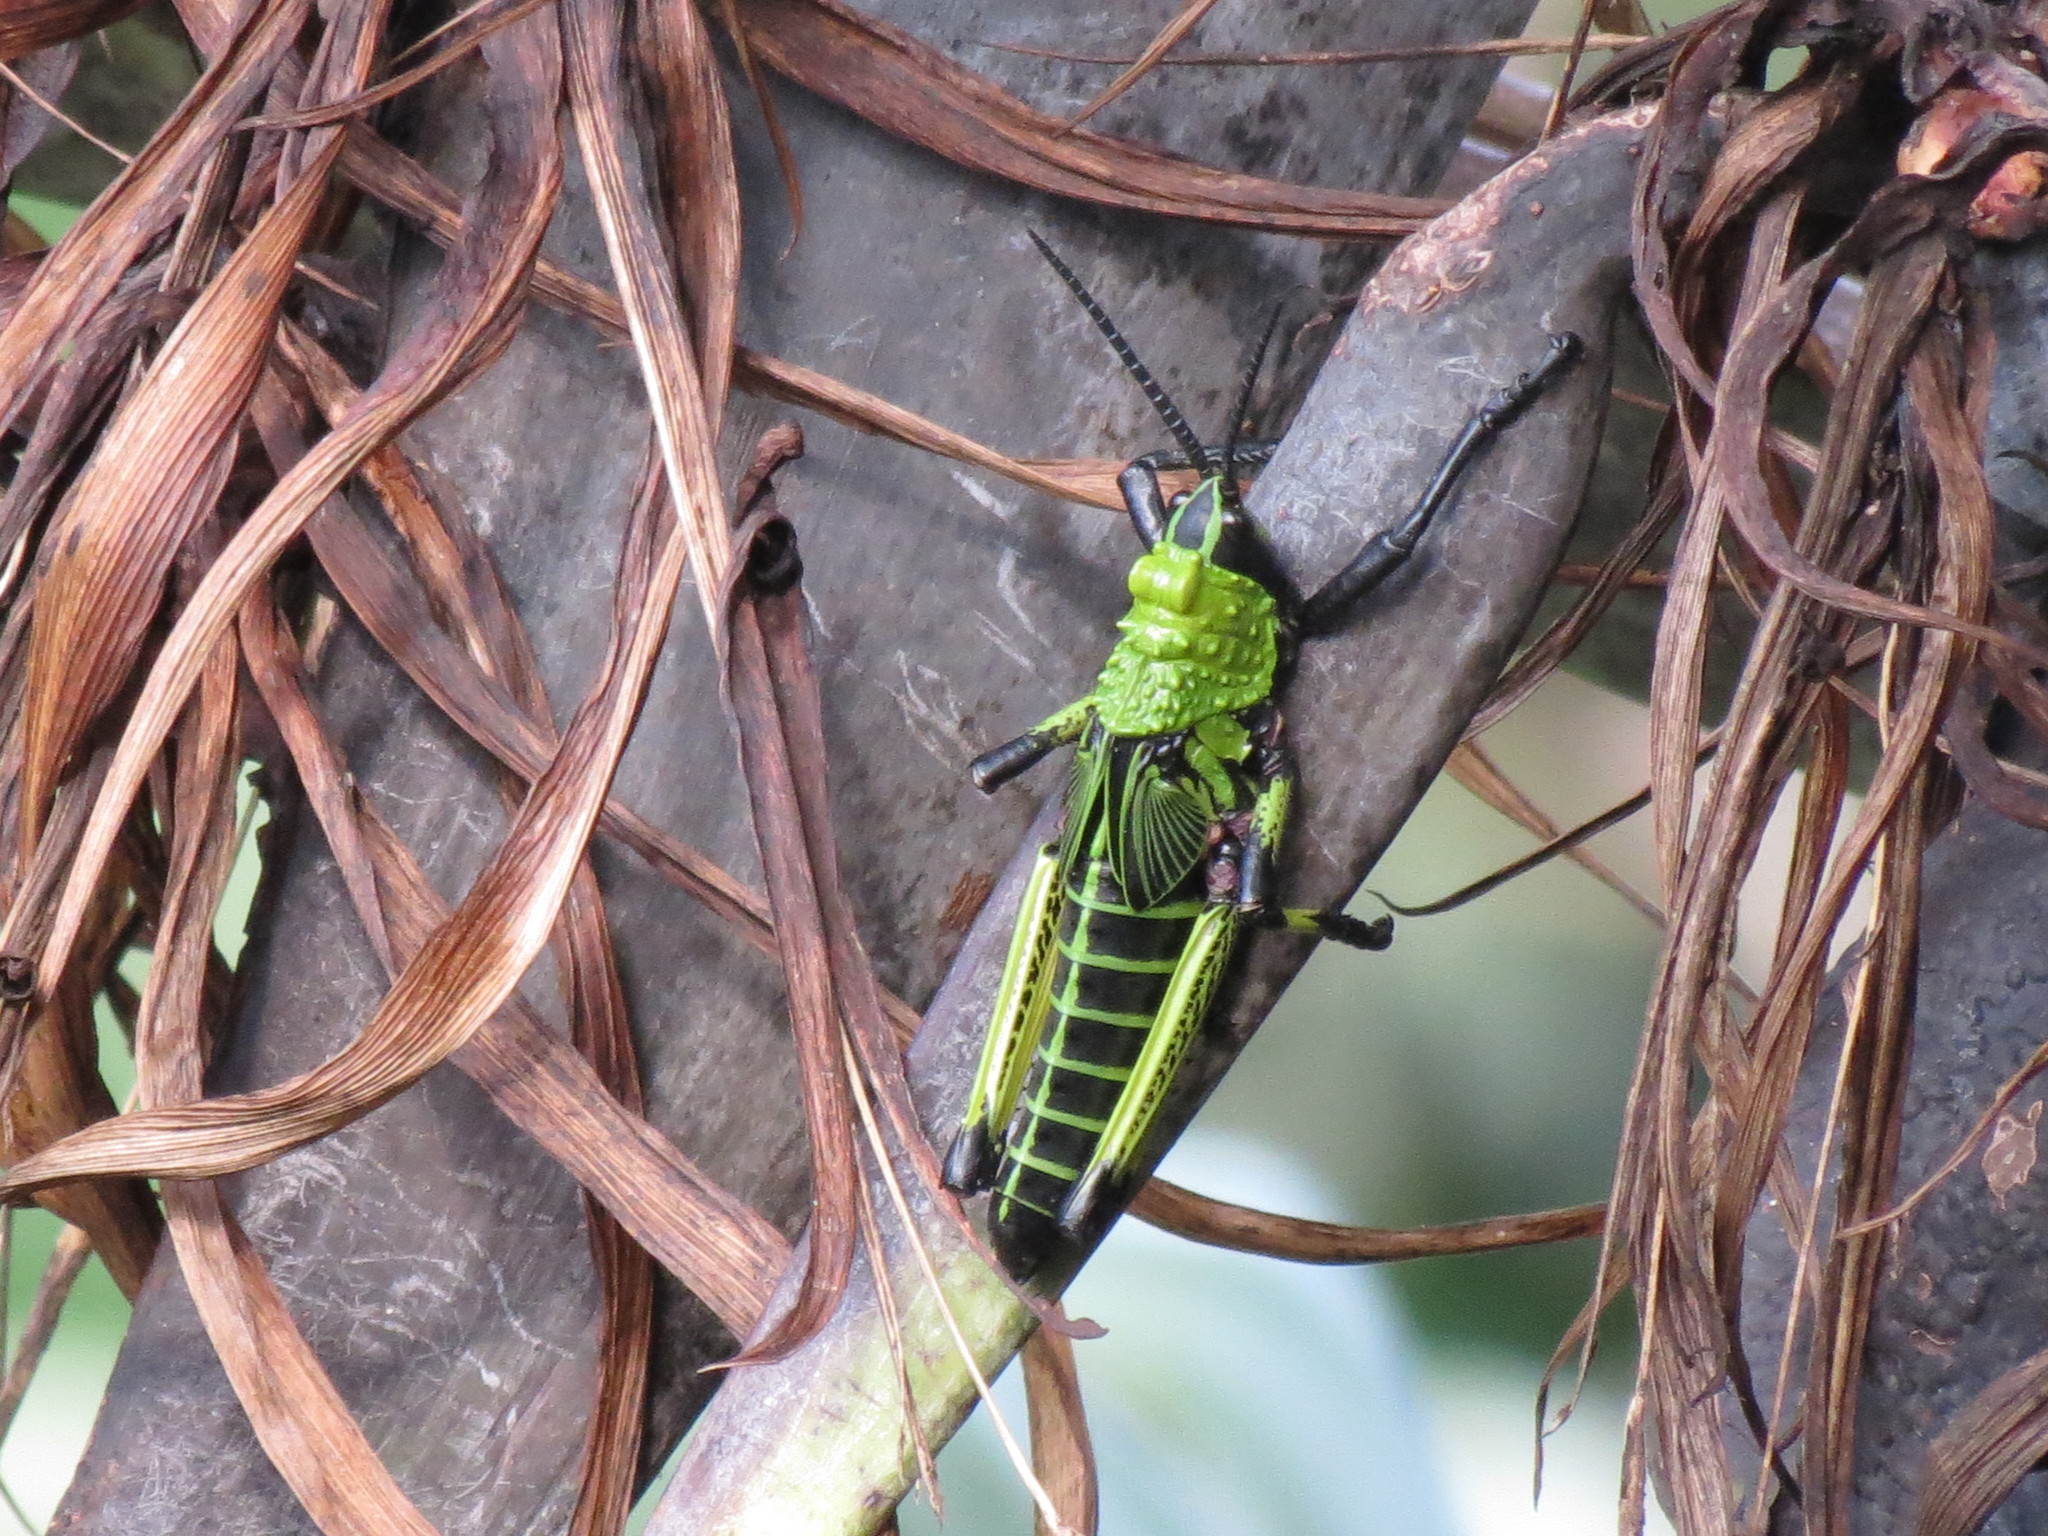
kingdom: Animalia
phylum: Arthropoda
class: Insecta
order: Orthoptera
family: Pyrgomorphidae
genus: Phymateus
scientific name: Phymateus leprosus
